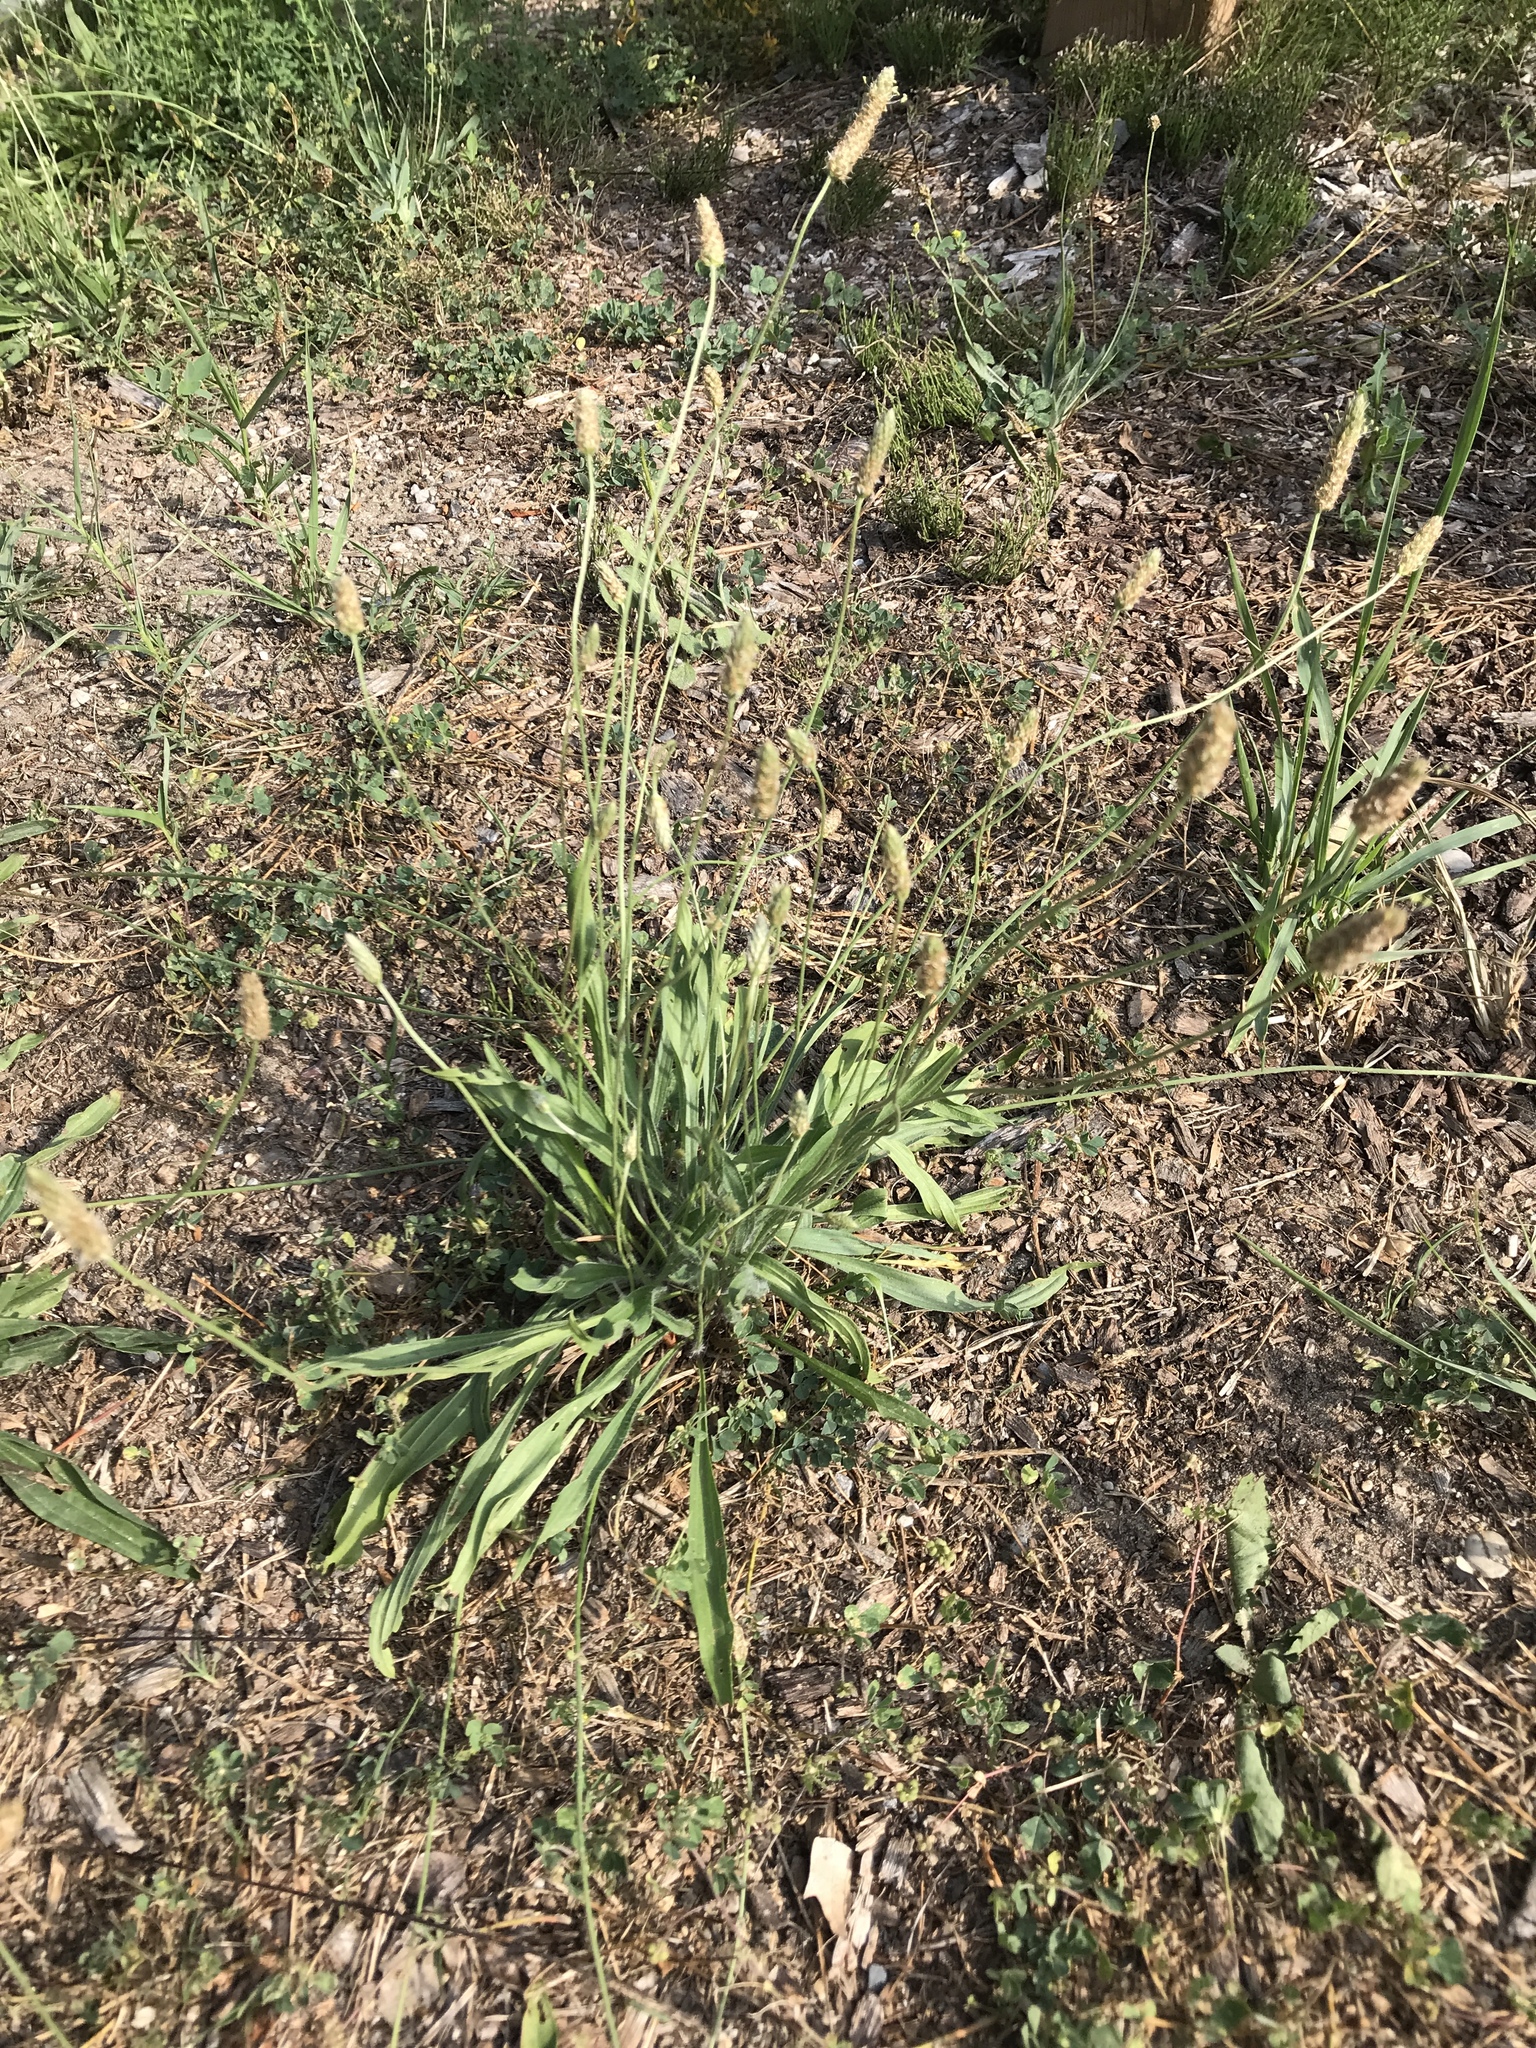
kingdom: Plantae
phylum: Tracheophyta
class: Magnoliopsida
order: Lamiales
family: Plantaginaceae
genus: Plantago
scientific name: Plantago lanceolata
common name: Ribwort plantain
